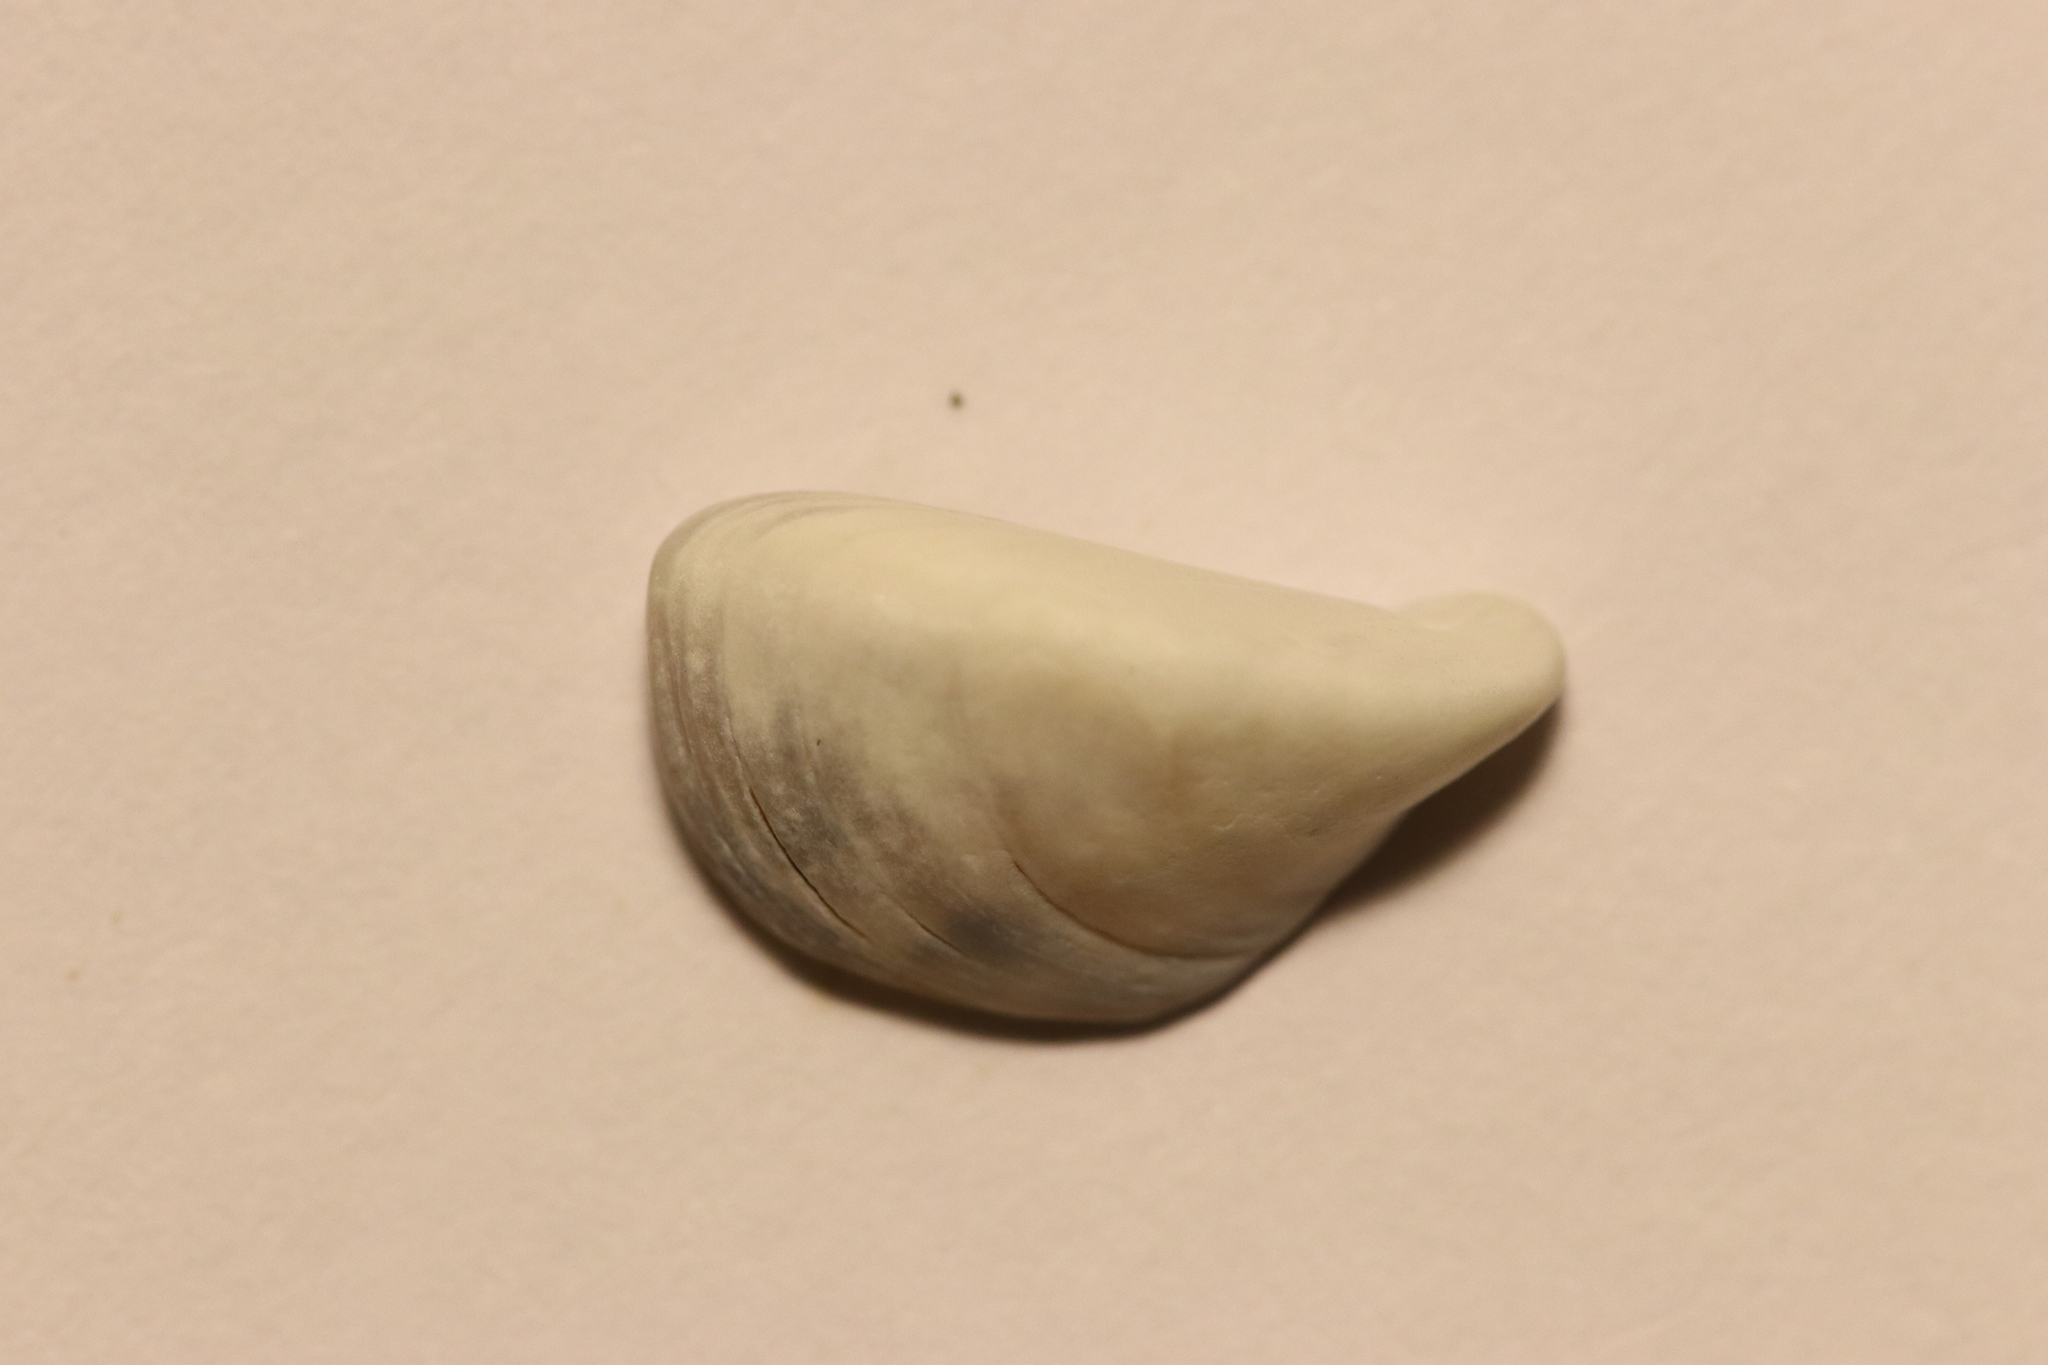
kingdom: Animalia
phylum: Mollusca
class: Bivalvia
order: Myida
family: Dreissenidae
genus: Dreissena
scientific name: Dreissena polymorpha
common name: Zebra mussel
